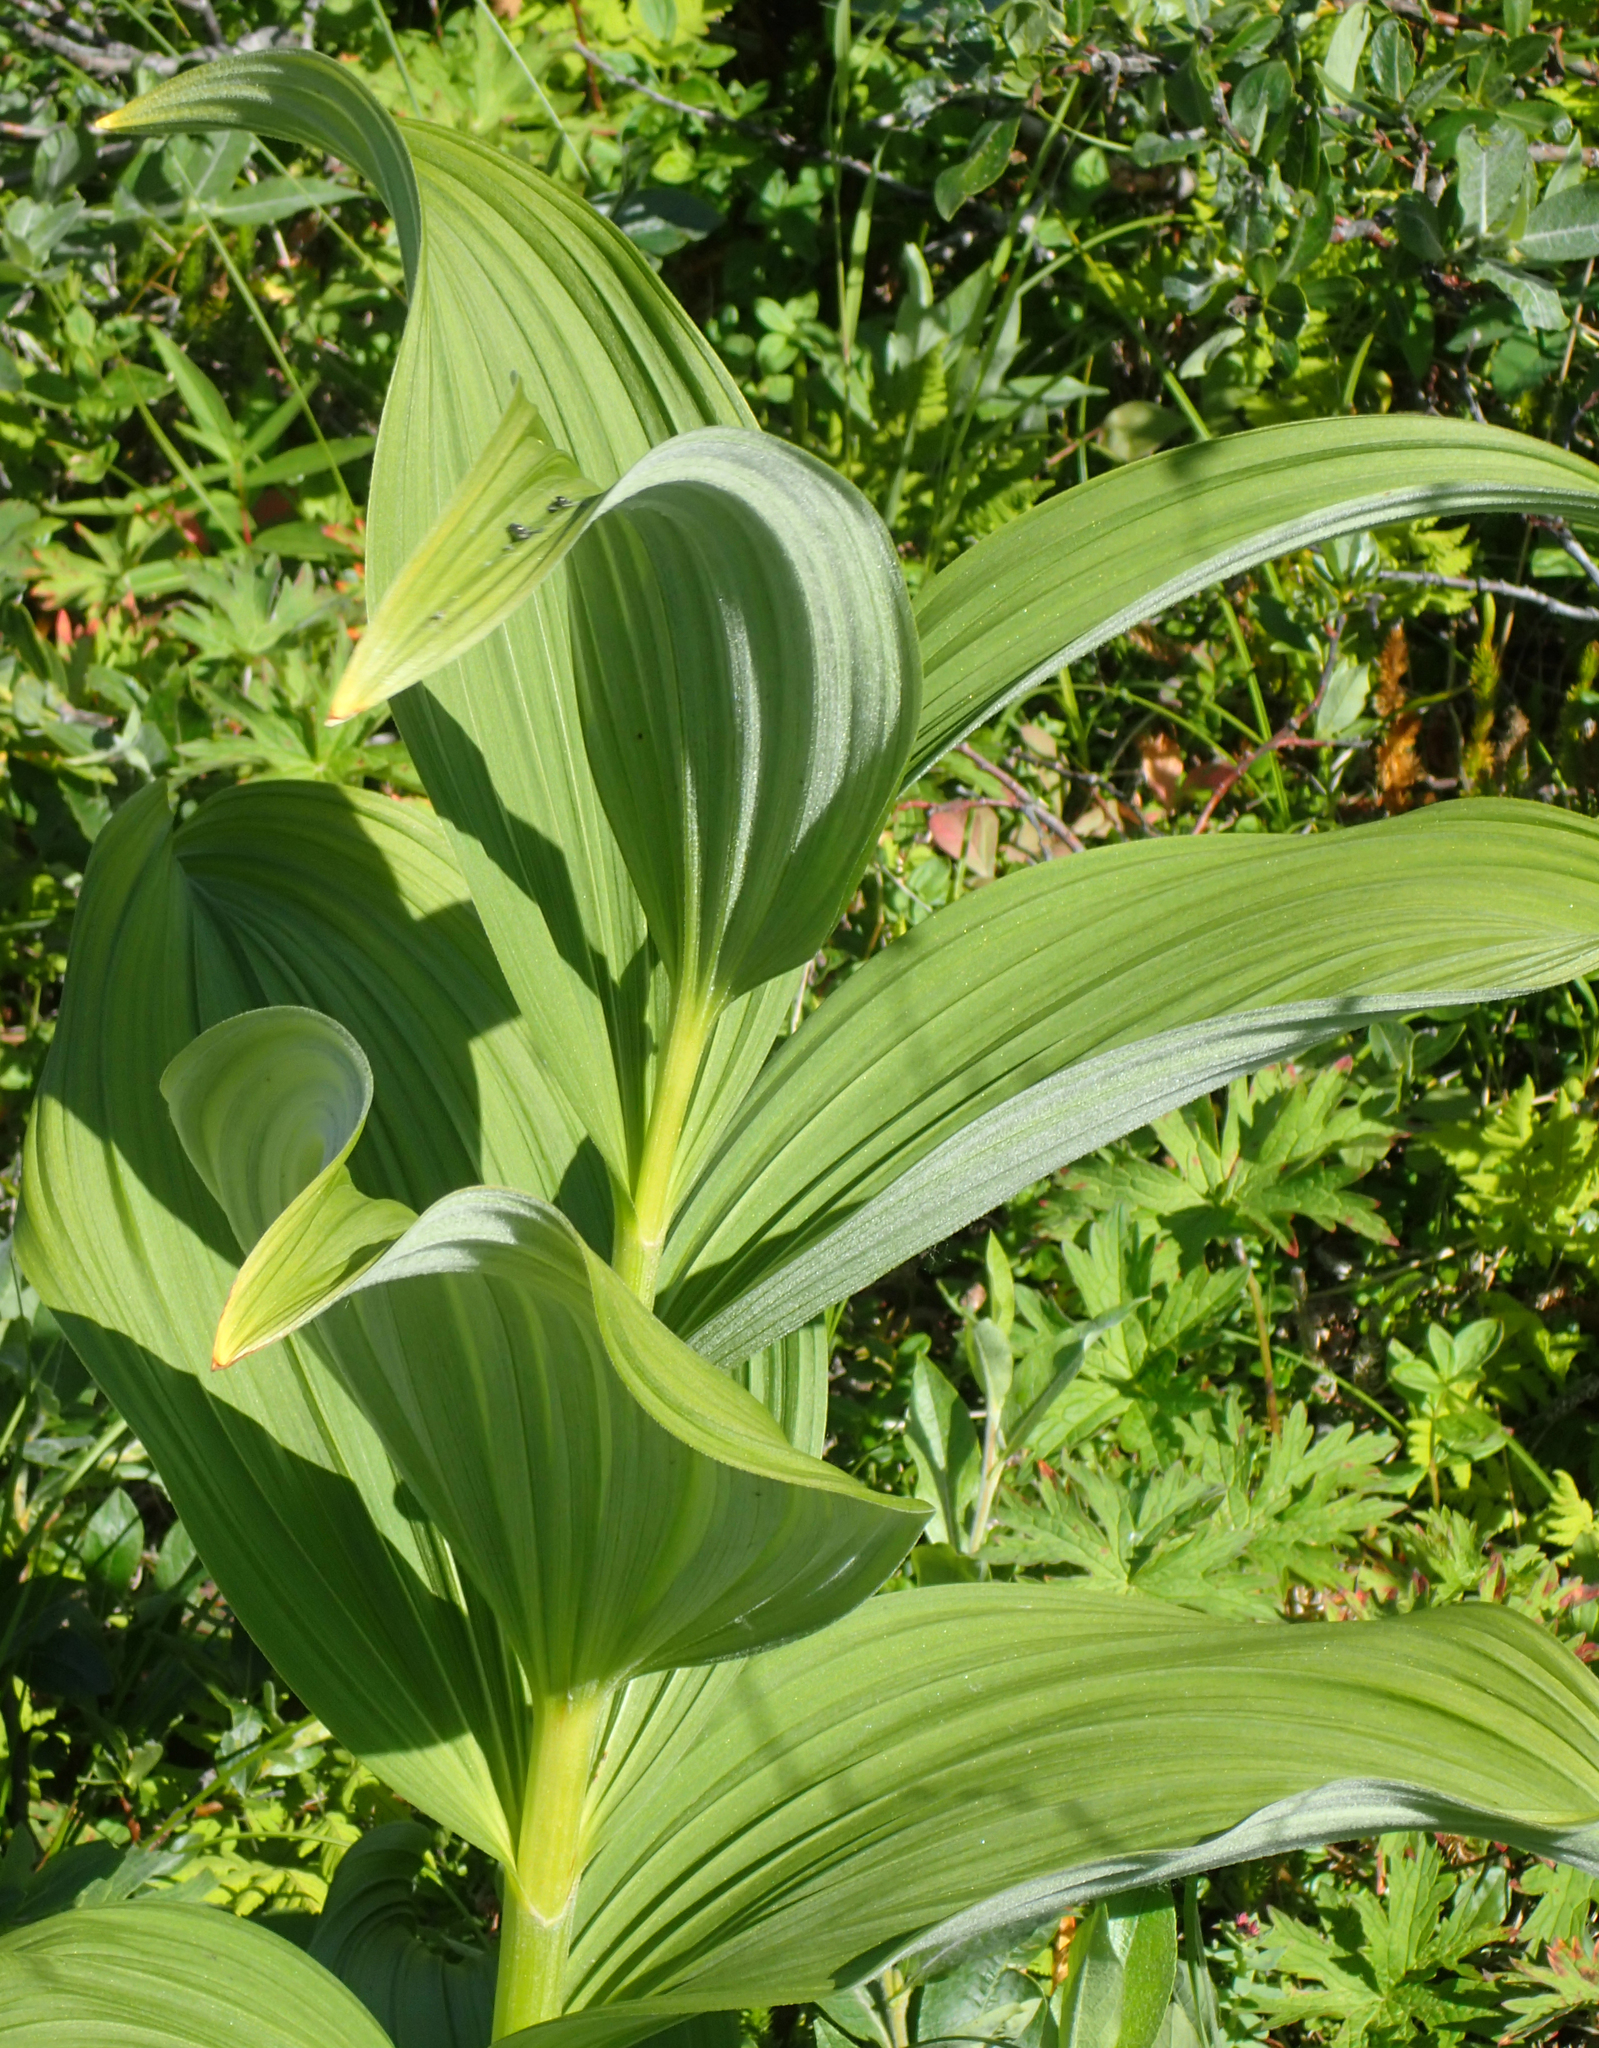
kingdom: Plantae
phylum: Tracheophyta
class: Liliopsida
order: Liliales
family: Melanthiaceae
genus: Veratrum
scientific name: Veratrum viride
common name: American false hellebore
